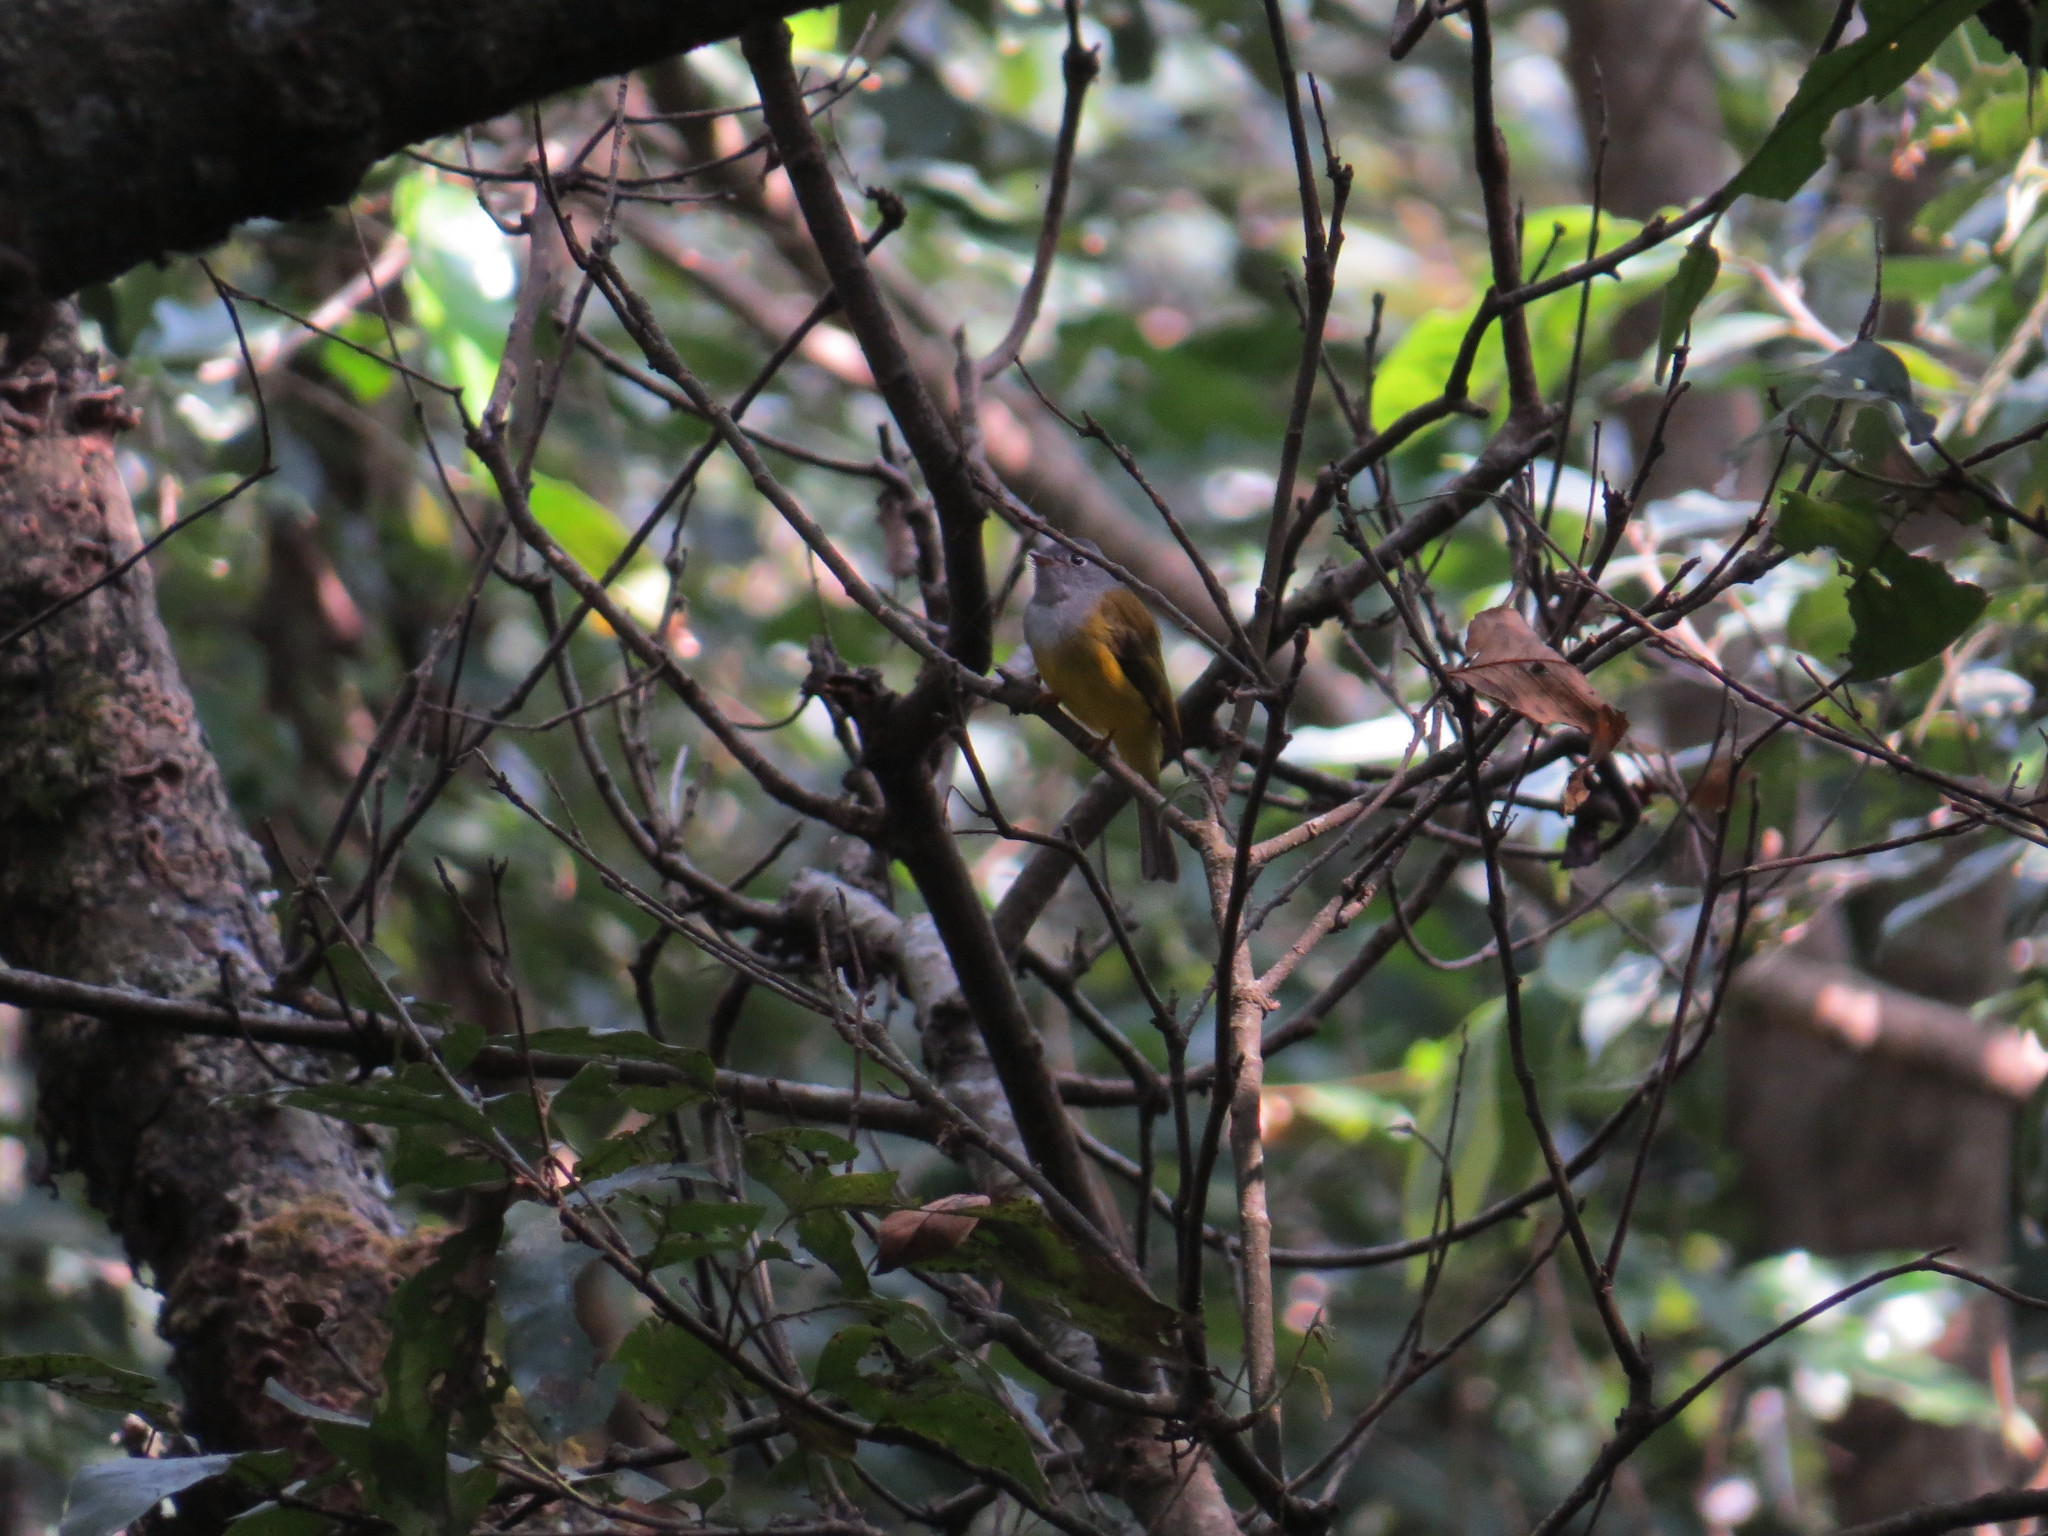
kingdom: Animalia
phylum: Chordata
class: Aves
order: Passeriformes
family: Stenostiridae
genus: Culicicapa
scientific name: Culicicapa ceylonensis
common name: Grey-headed canary-flycatcher
